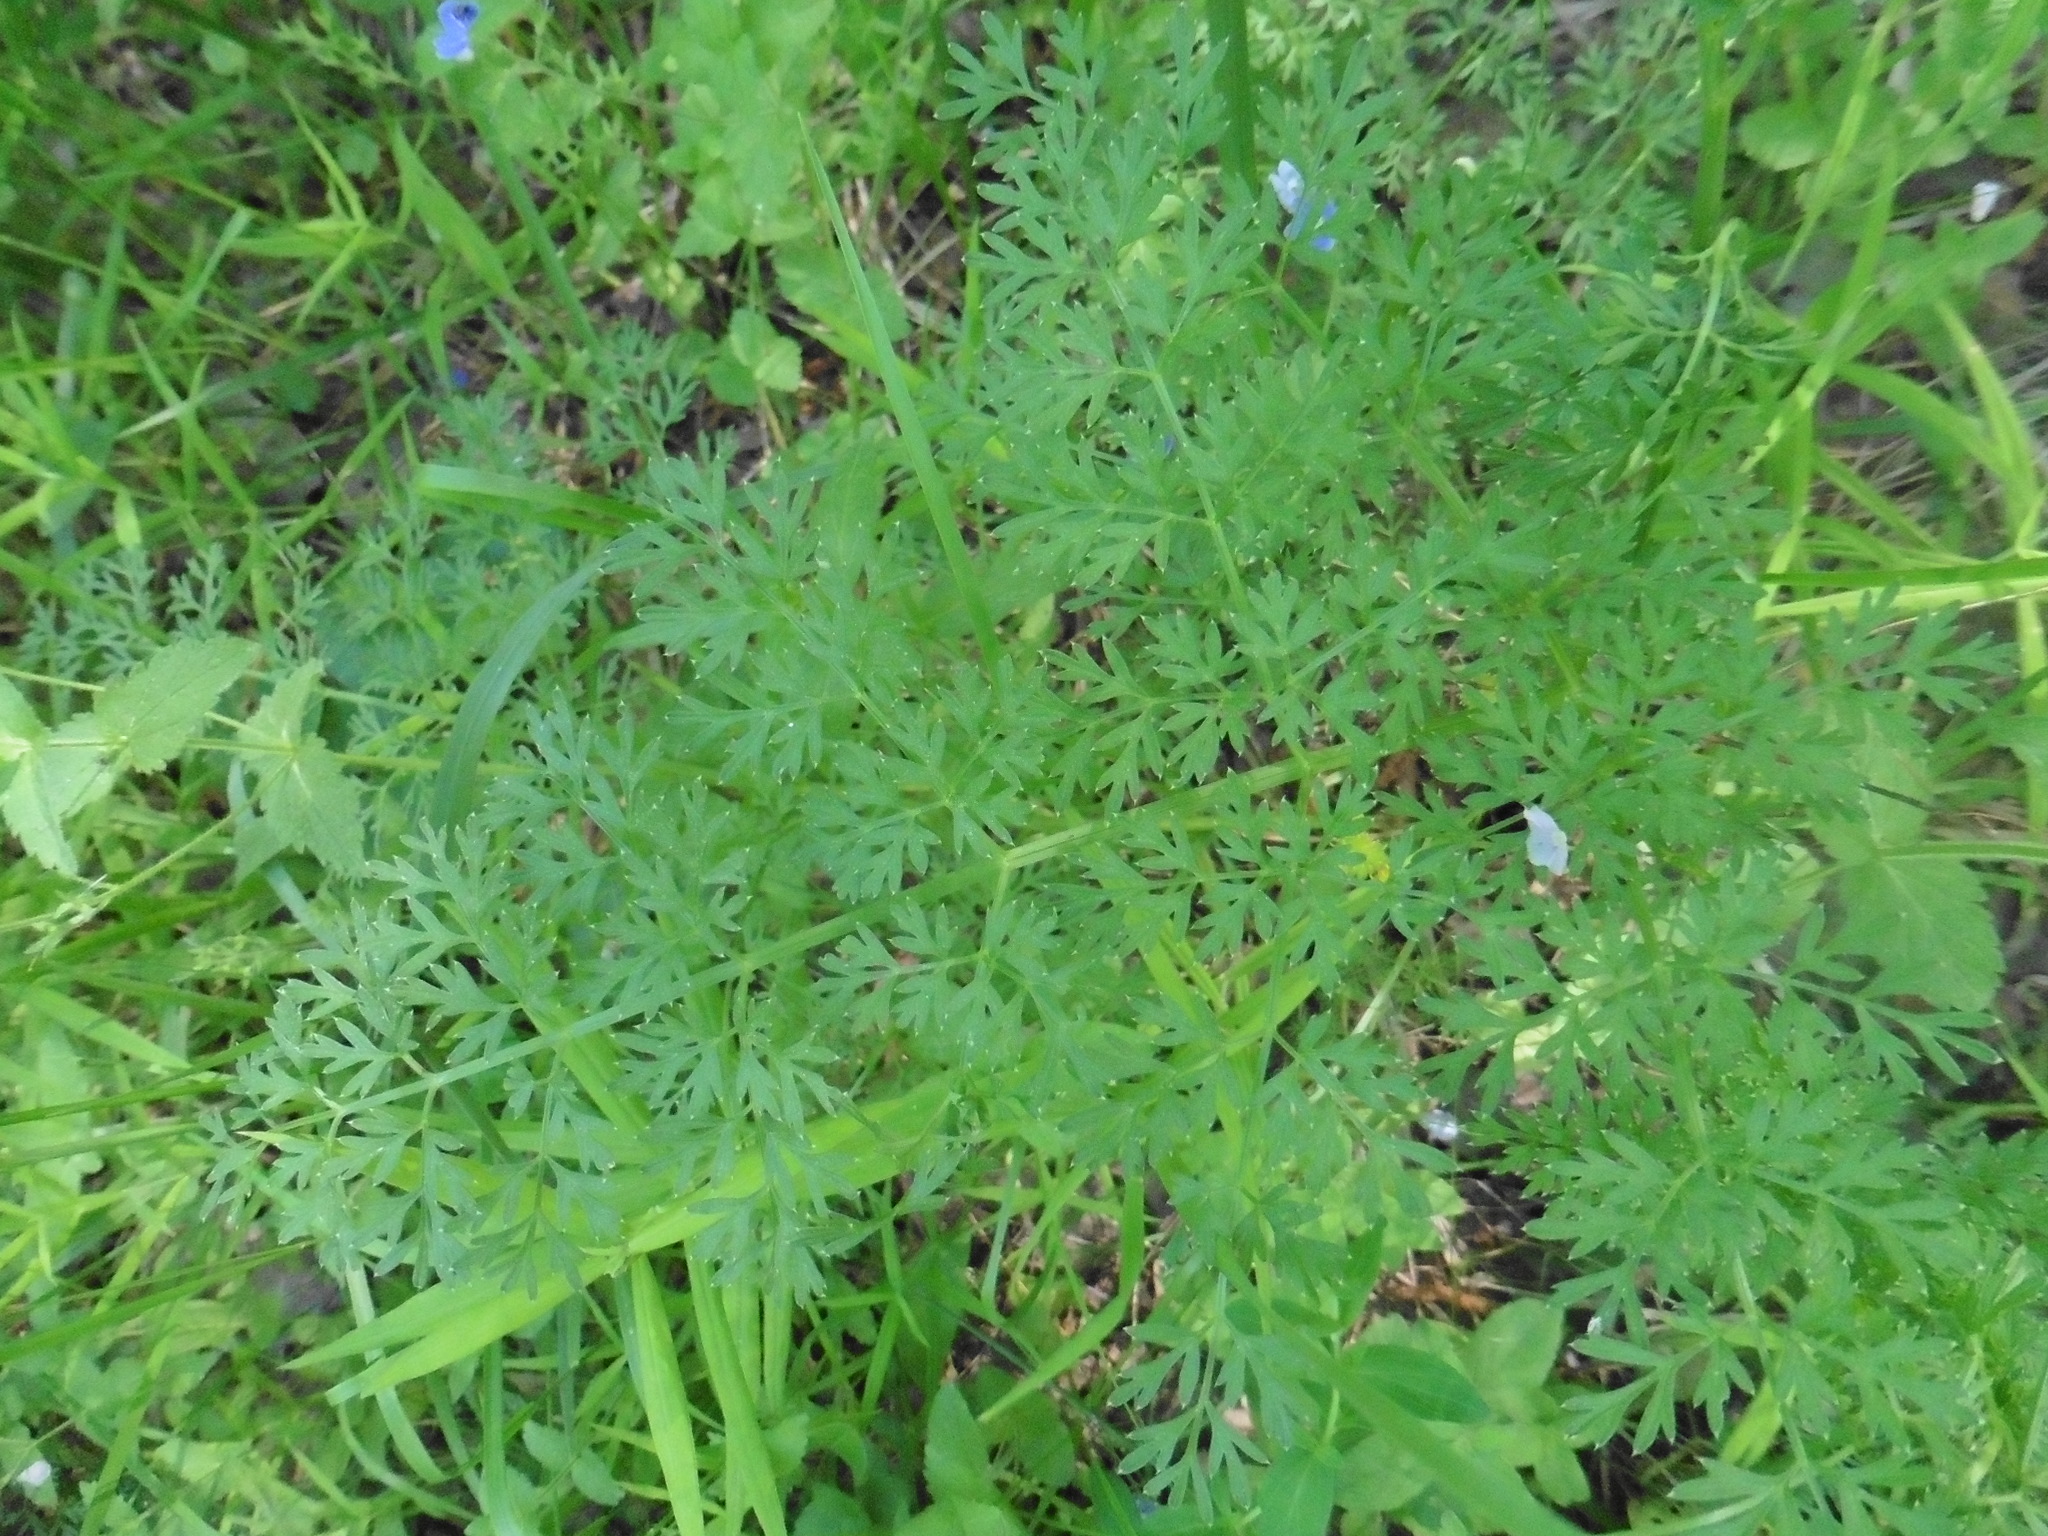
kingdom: Plantae
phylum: Tracheophyta
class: Magnoliopsida
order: Apiales
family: Apiaceae
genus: Selinum
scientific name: Selinum carvifolia
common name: Cambridge milk-parsley
